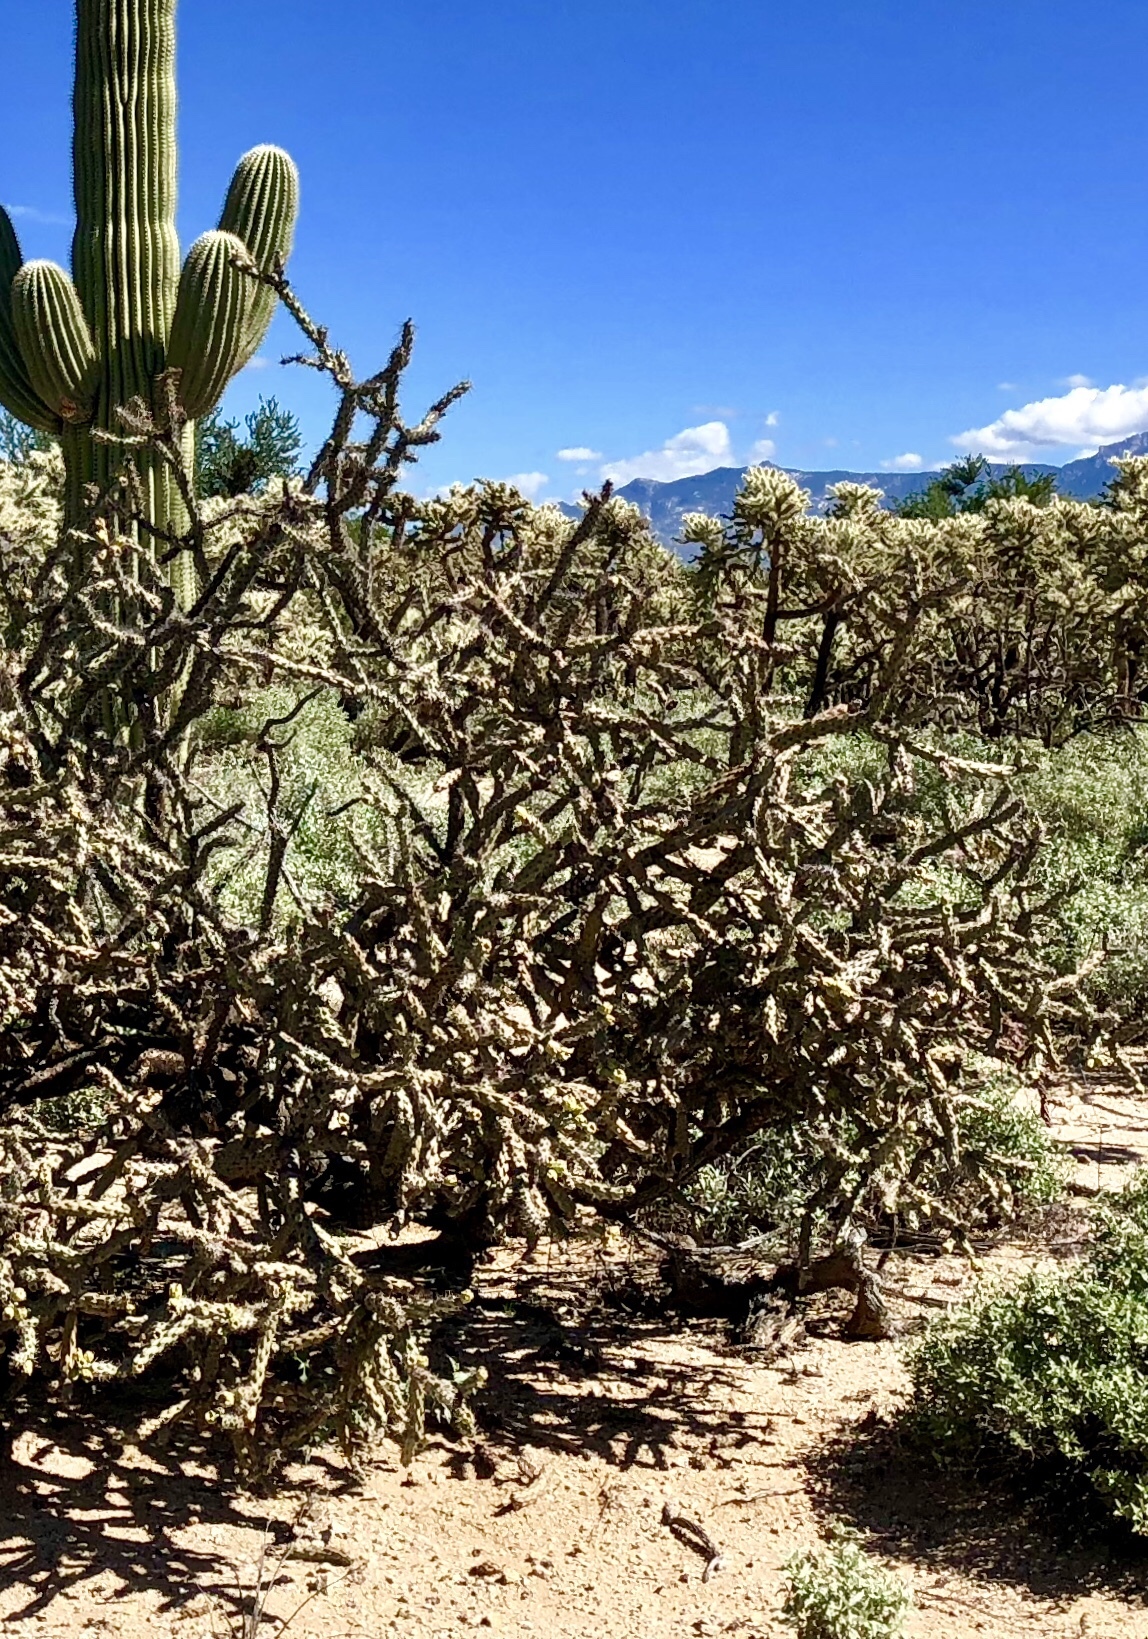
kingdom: Plantae
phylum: Tracheophyta
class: Magnoliopsida
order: Caryophyllales
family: Cactaceae
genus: Cylindropuntia
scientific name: Cylindropuntia thurberi
